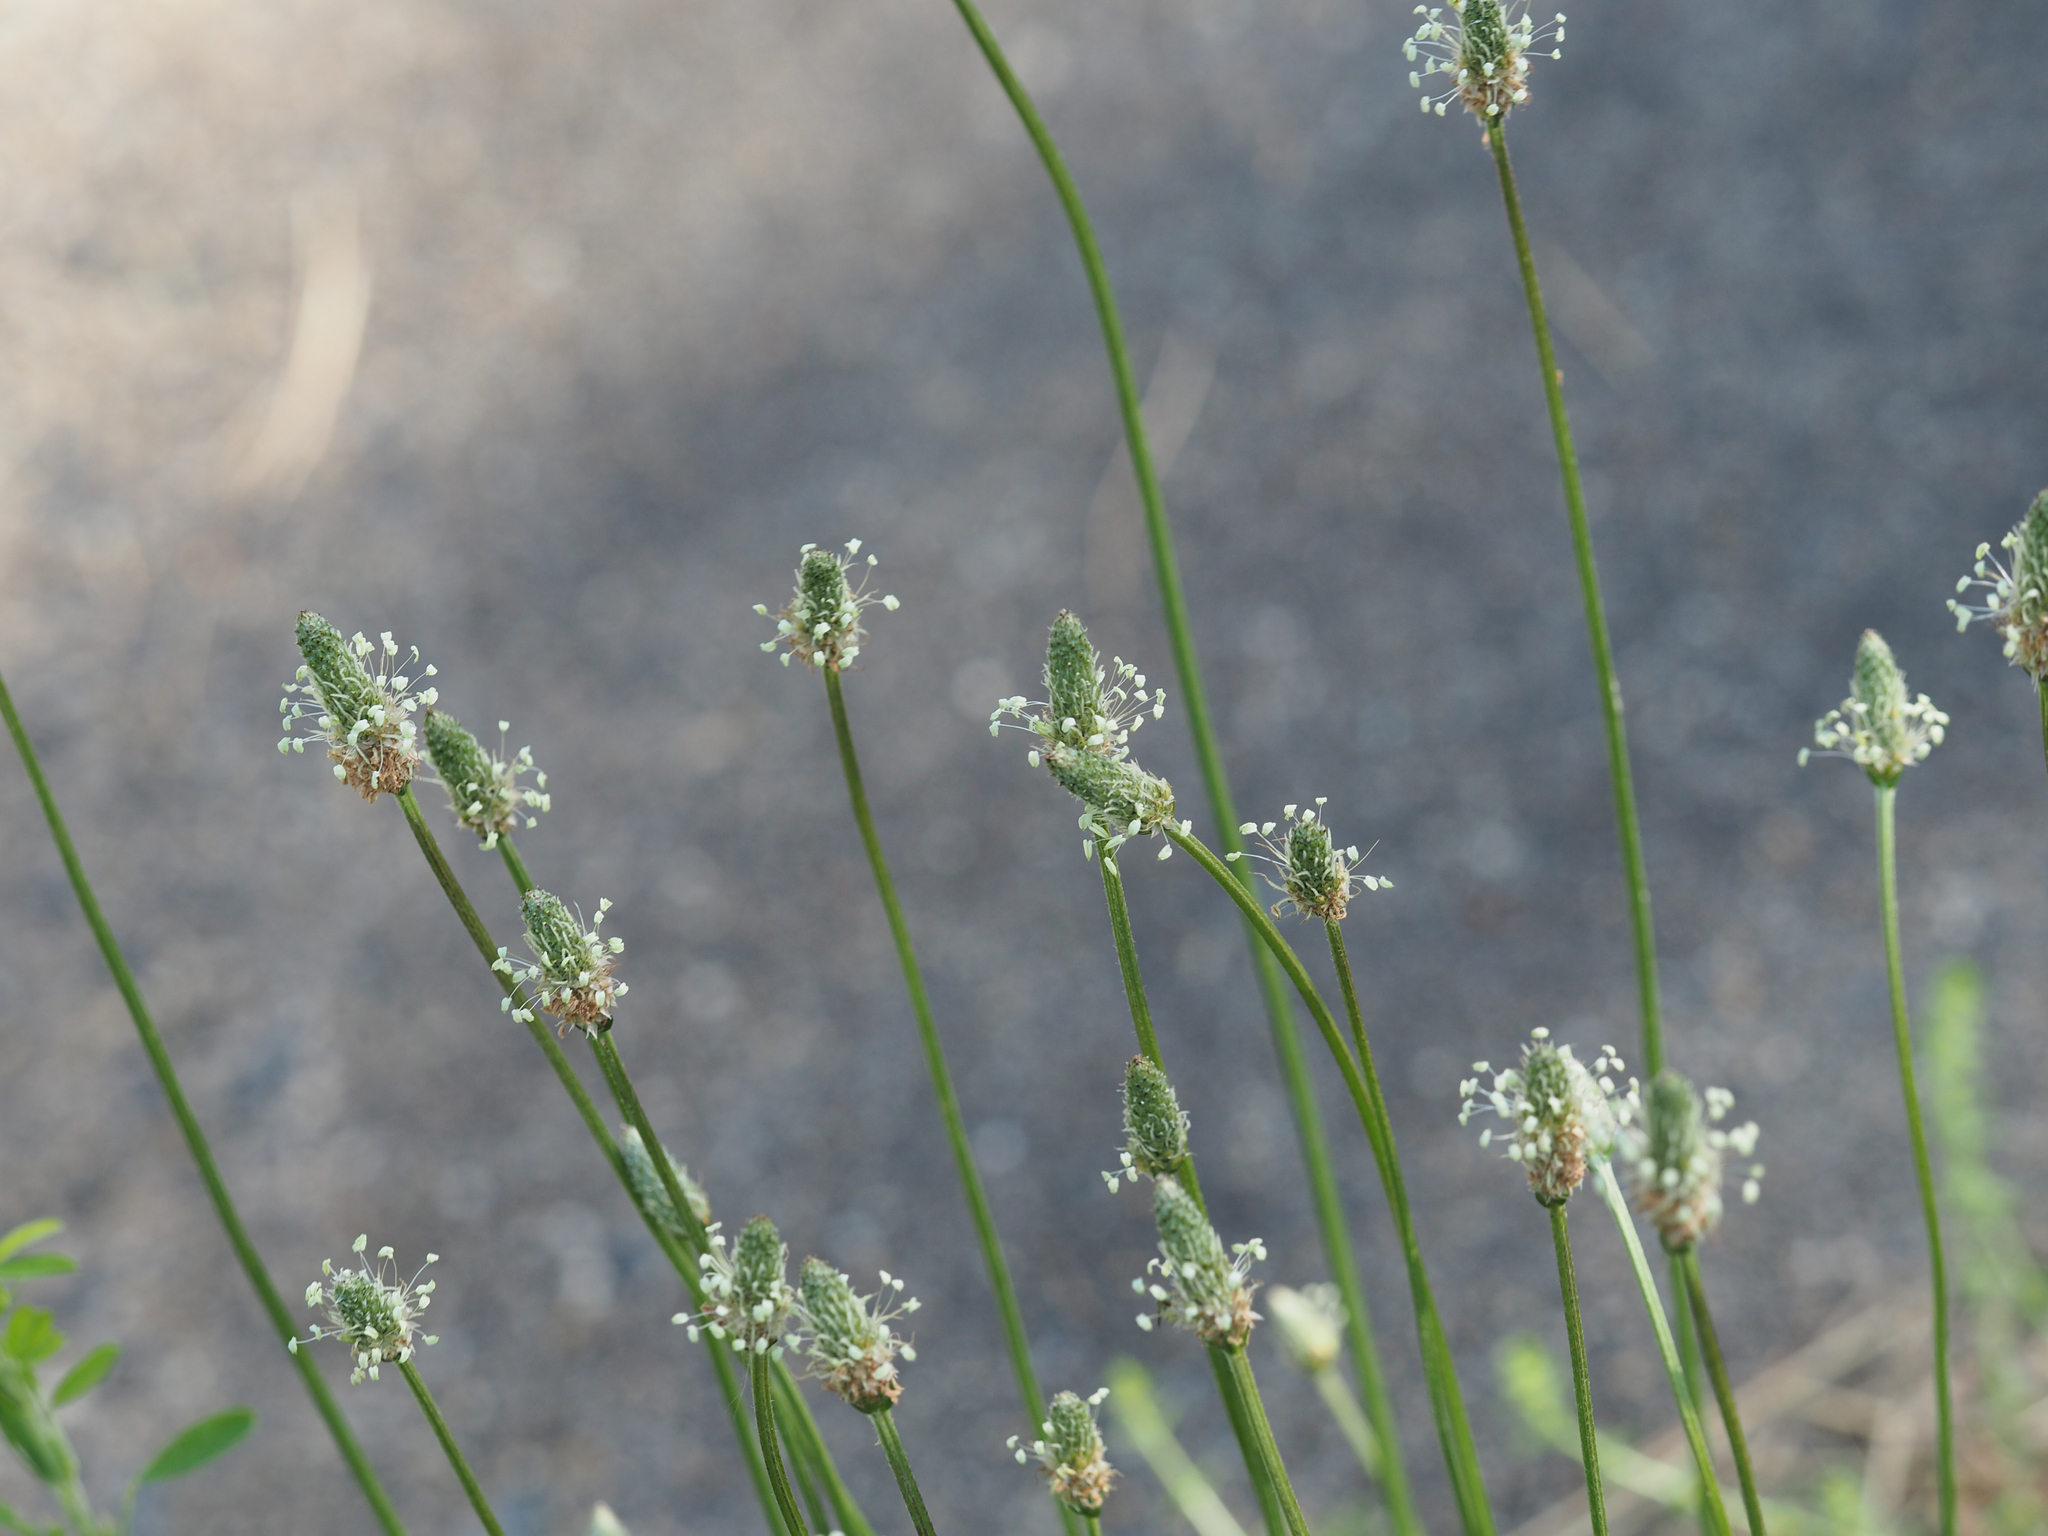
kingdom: Plantae
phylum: Tracheophyta
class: Magnoliopsida
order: Lamiales
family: Plantaginaceae
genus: Plantago
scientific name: Plantago lanceolata
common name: Ribwort plantain
